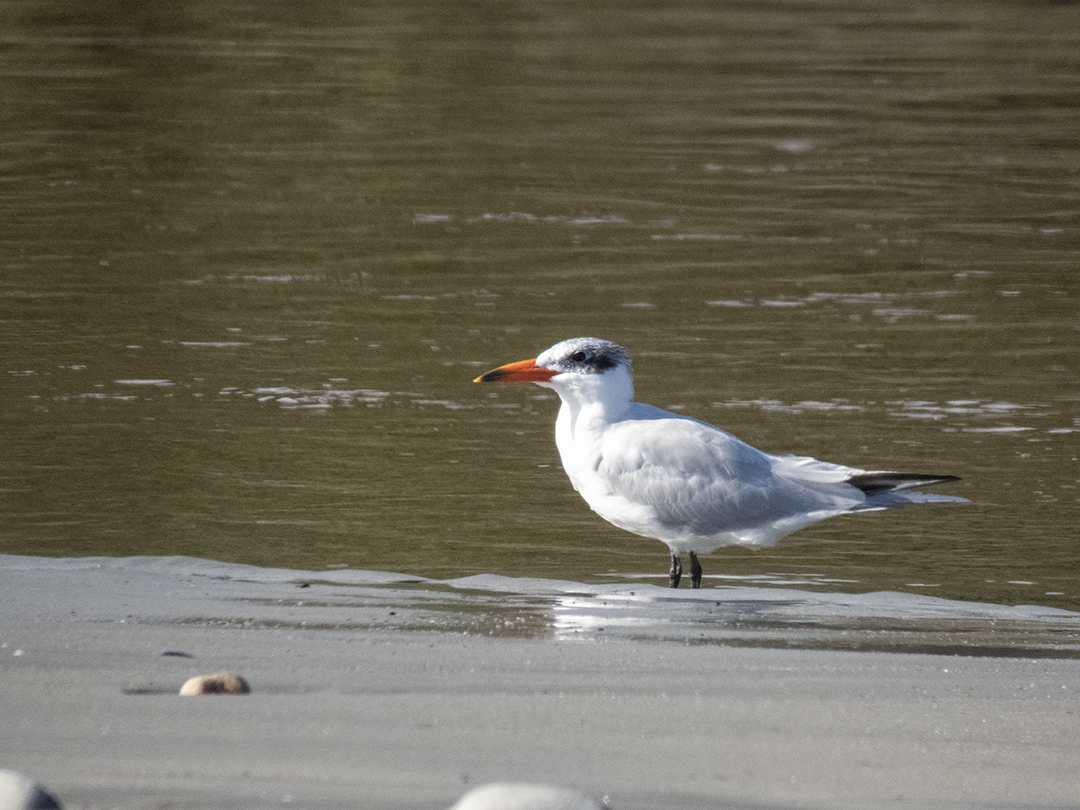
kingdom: Animalia
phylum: Chordata
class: Aves
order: Charadriiformes
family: Laridae
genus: Hydroprogne
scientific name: Hydroprogne caspia
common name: Caspian tern
